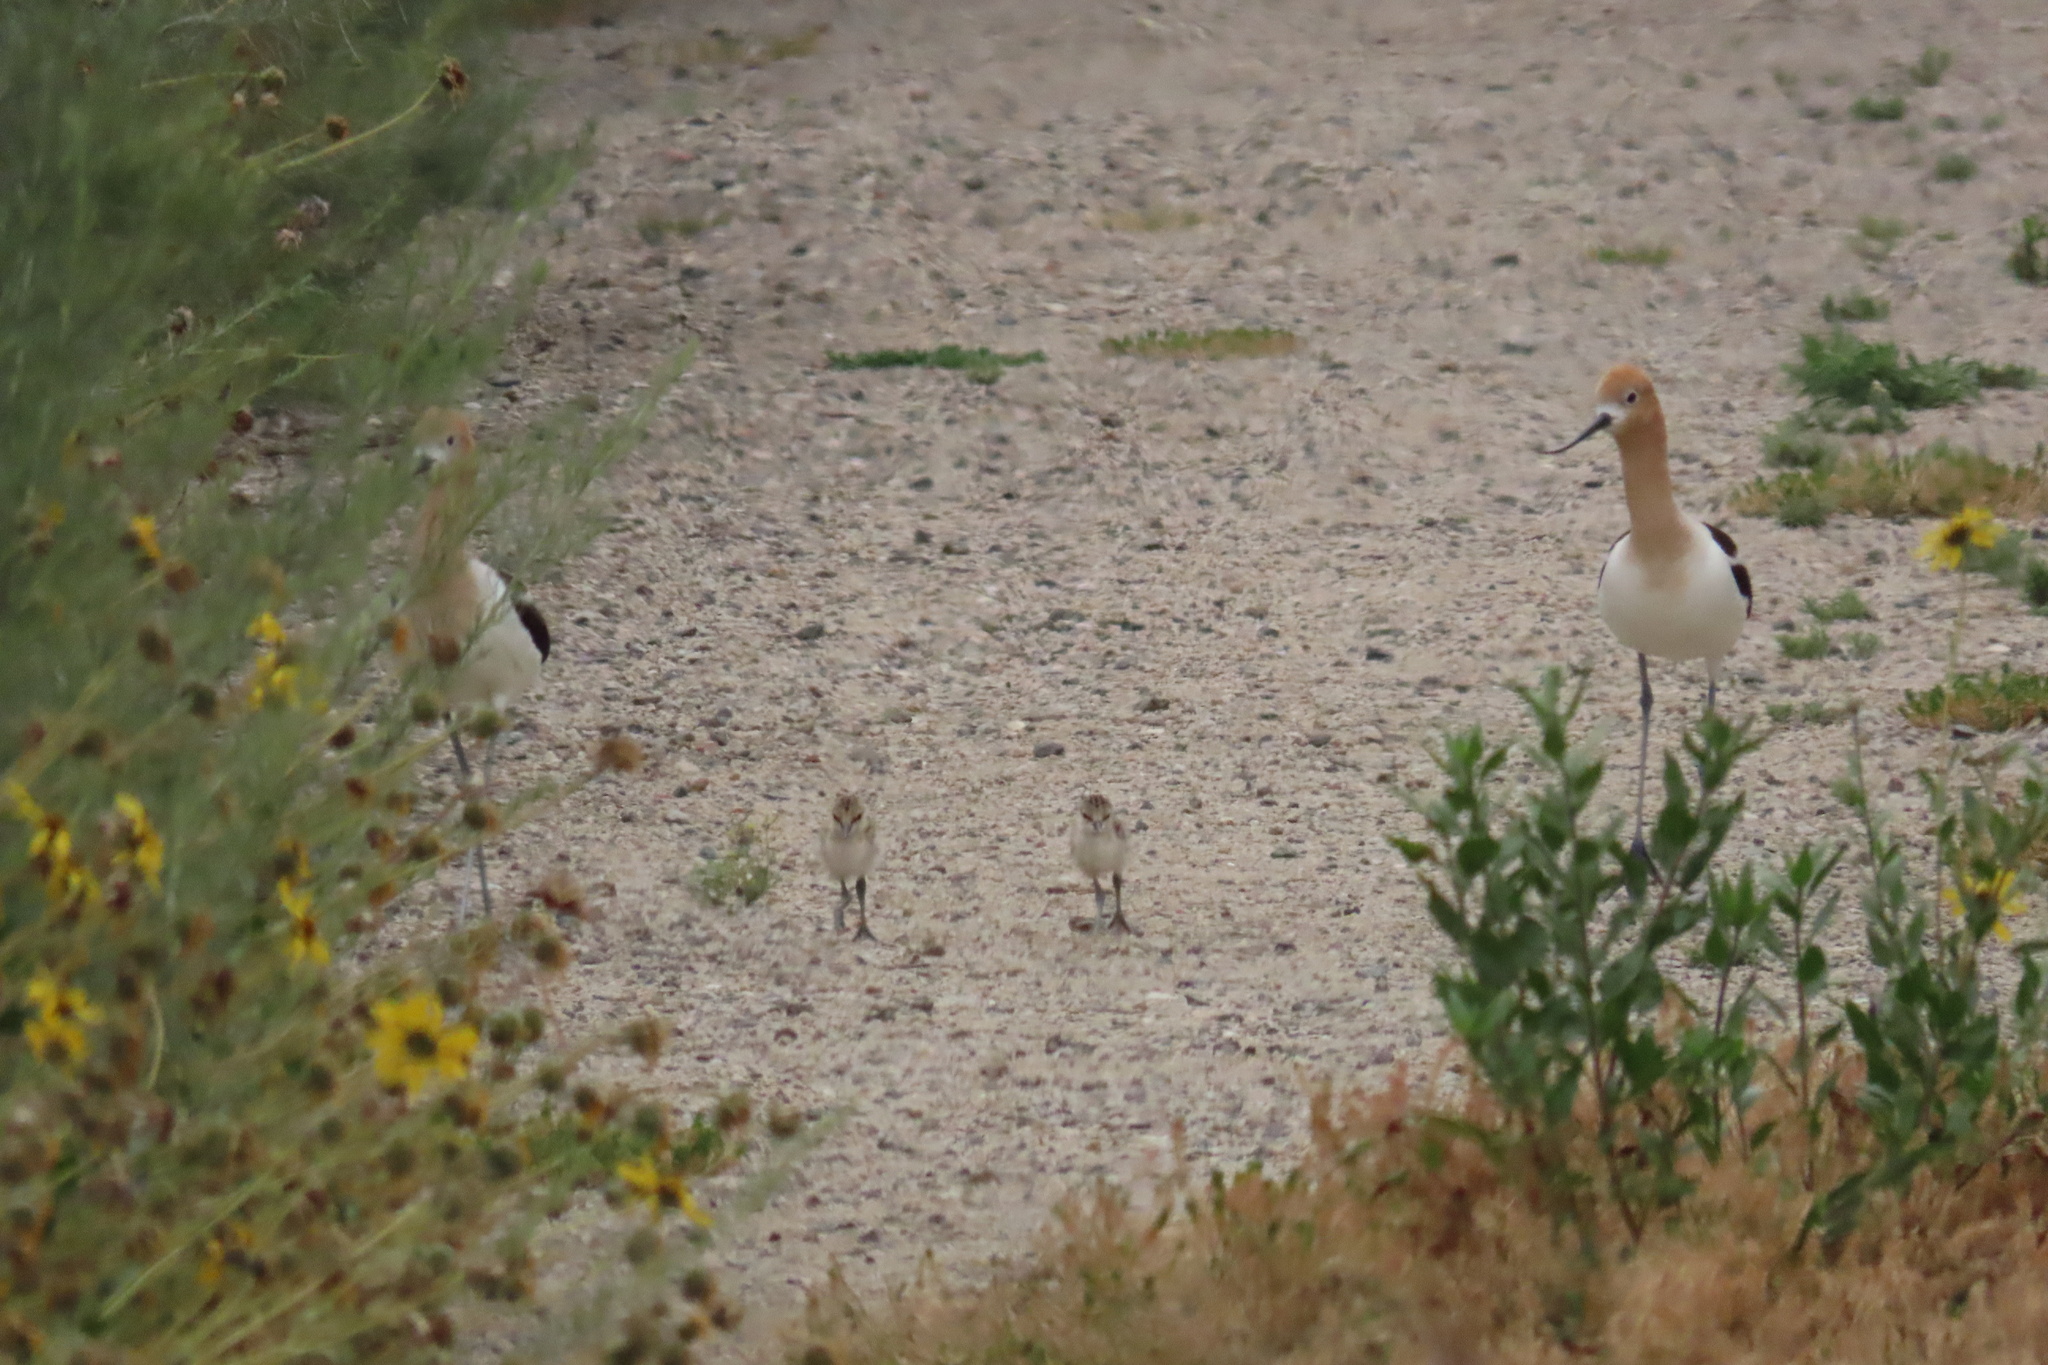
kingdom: Animalia
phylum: Chordata
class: Aves
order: Charadriiformes
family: Recurvirostridae
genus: Recurvirostra
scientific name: Recurvirostra americana
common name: American avocet
